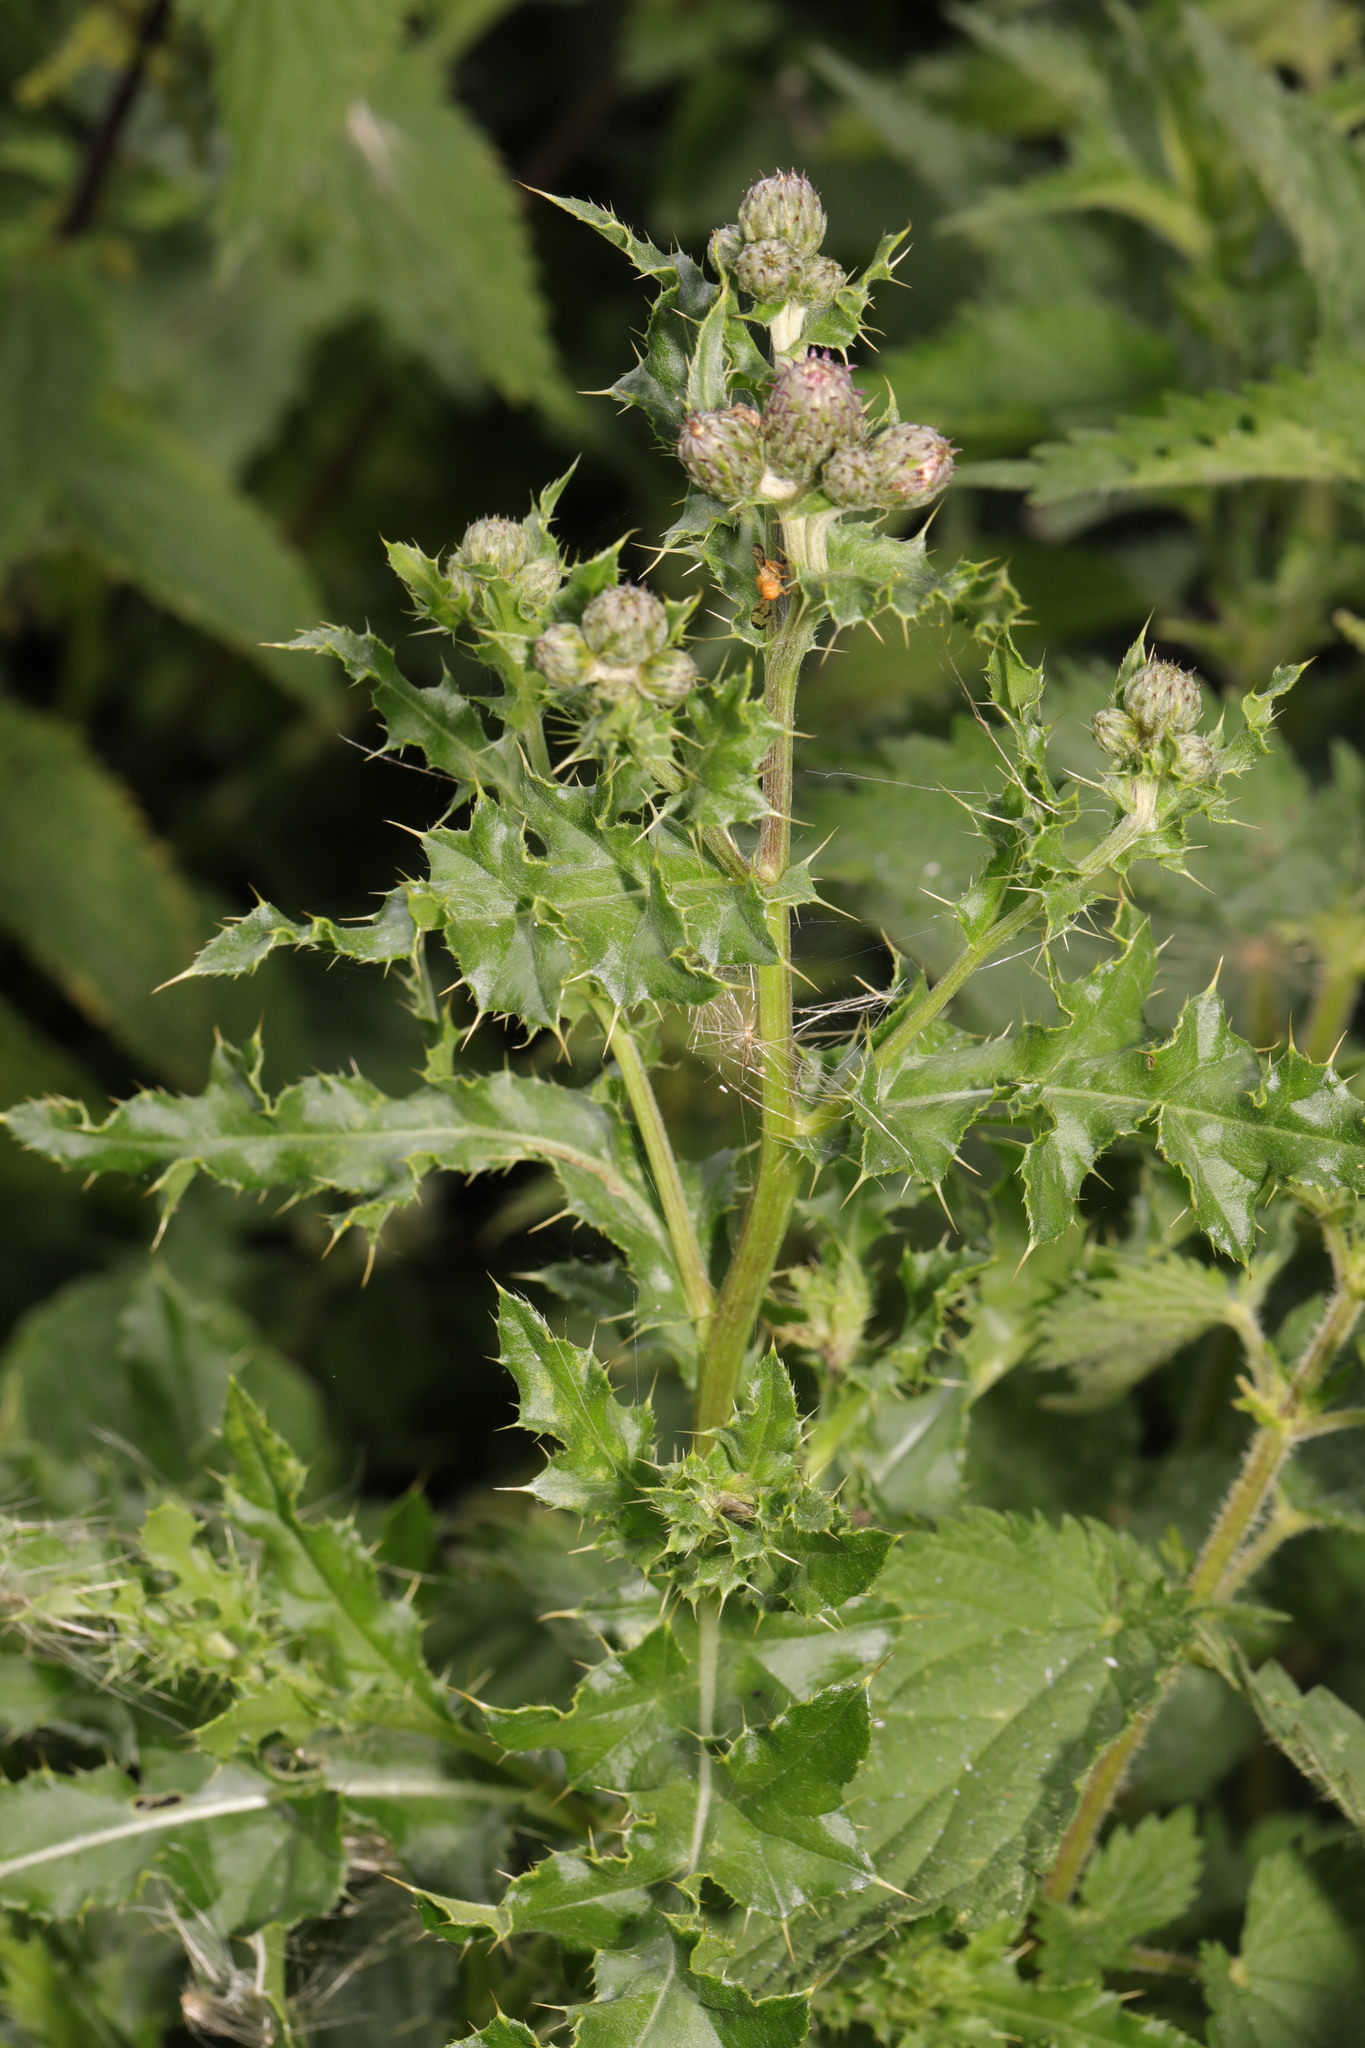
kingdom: Plantae
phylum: Tracheophyta
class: Magnoliopsida
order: Asterales
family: Asteraceae
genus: Cirsium
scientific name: Cirsium arvense
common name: Creeping thistle
